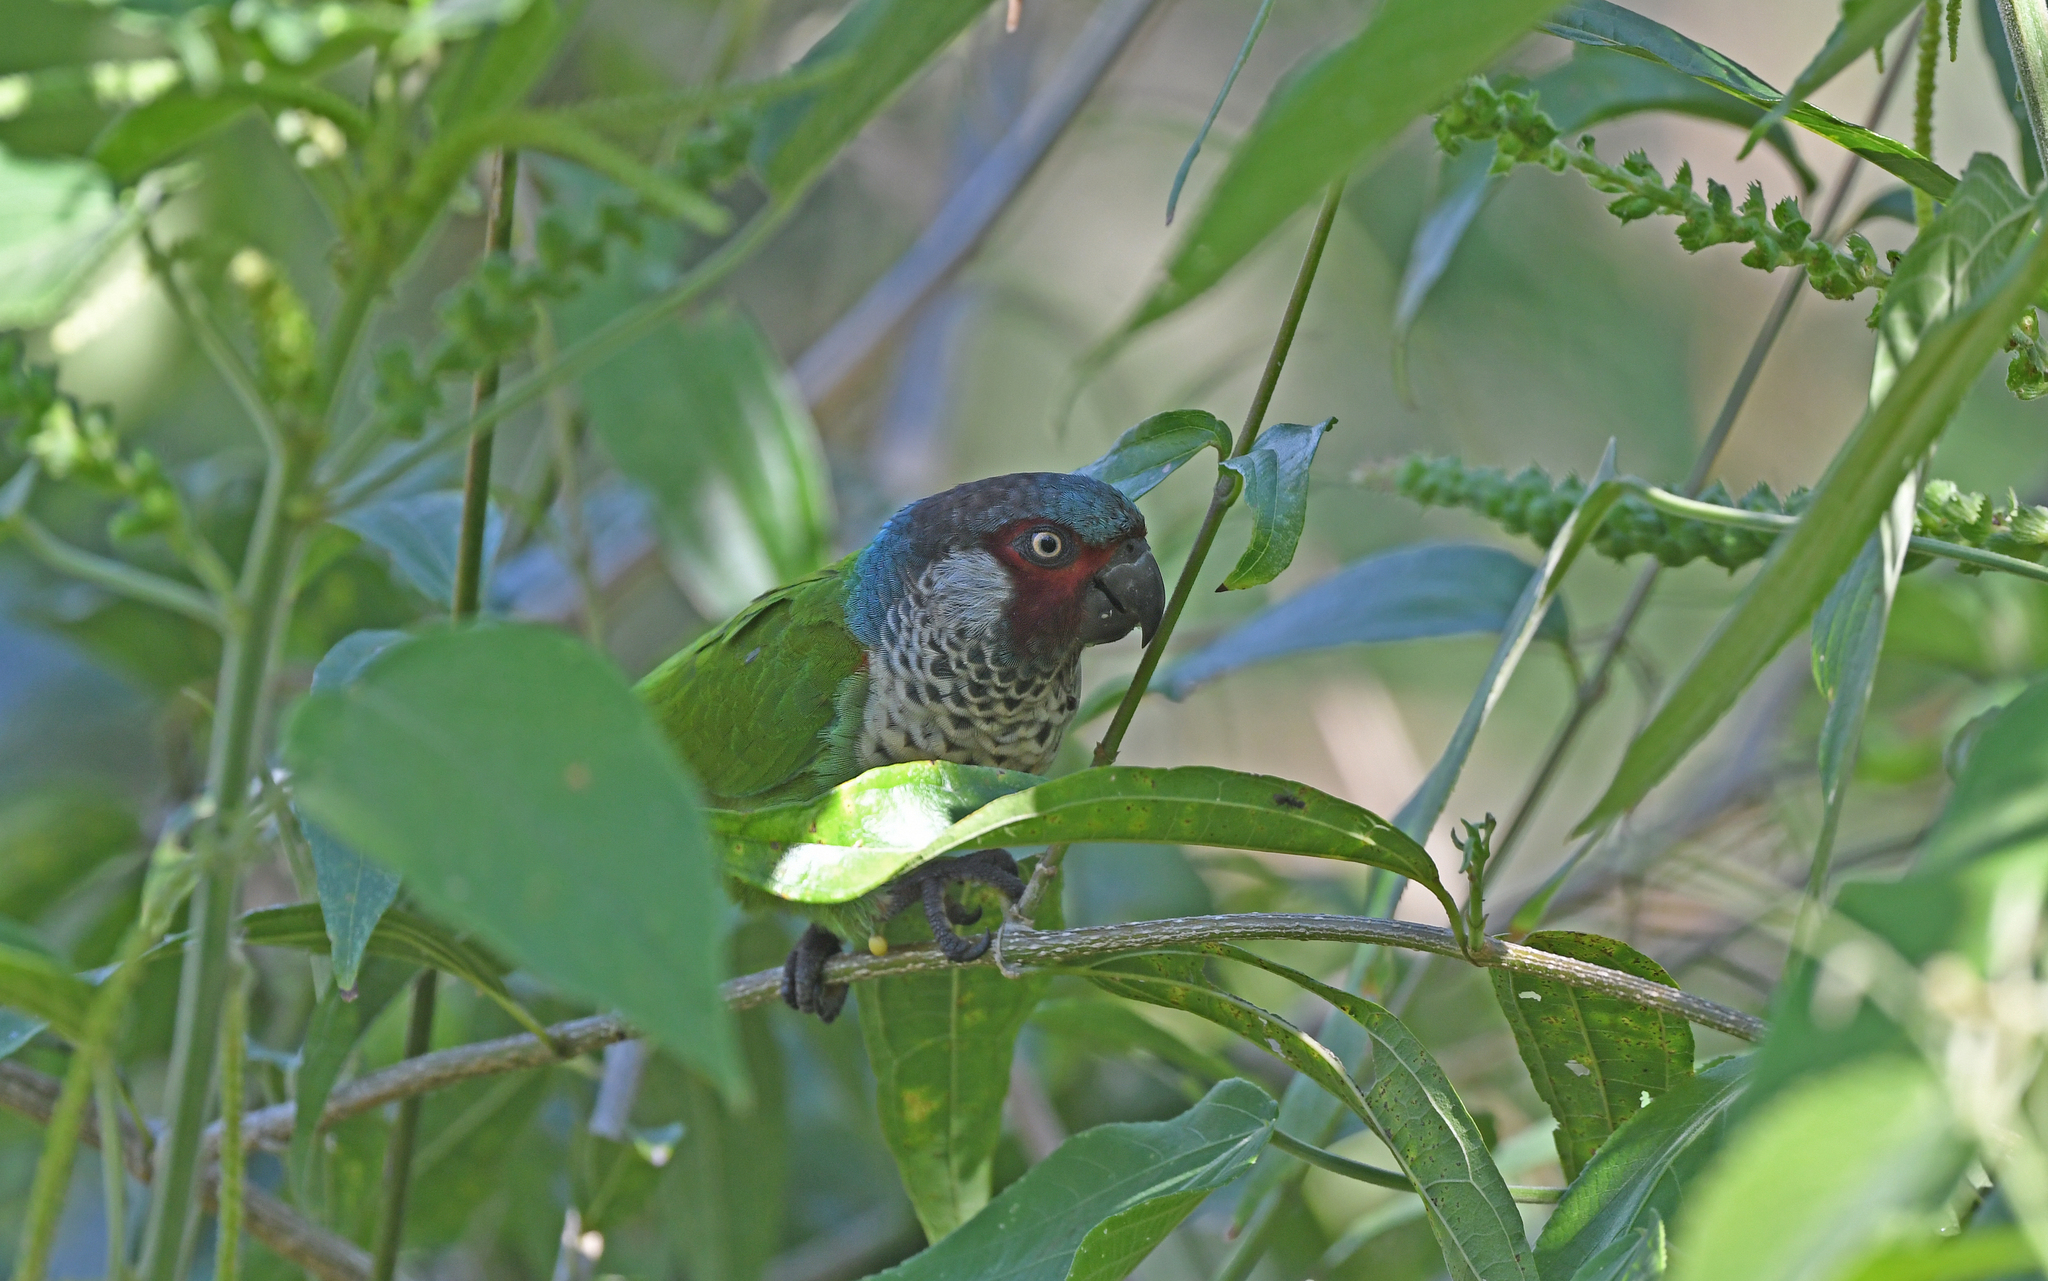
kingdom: Animalia
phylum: Chordata
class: Aves
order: Psittaciformes
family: Psittacidae
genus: Pyrrhura
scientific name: Pyrrhura picta
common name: Painted parakeet
